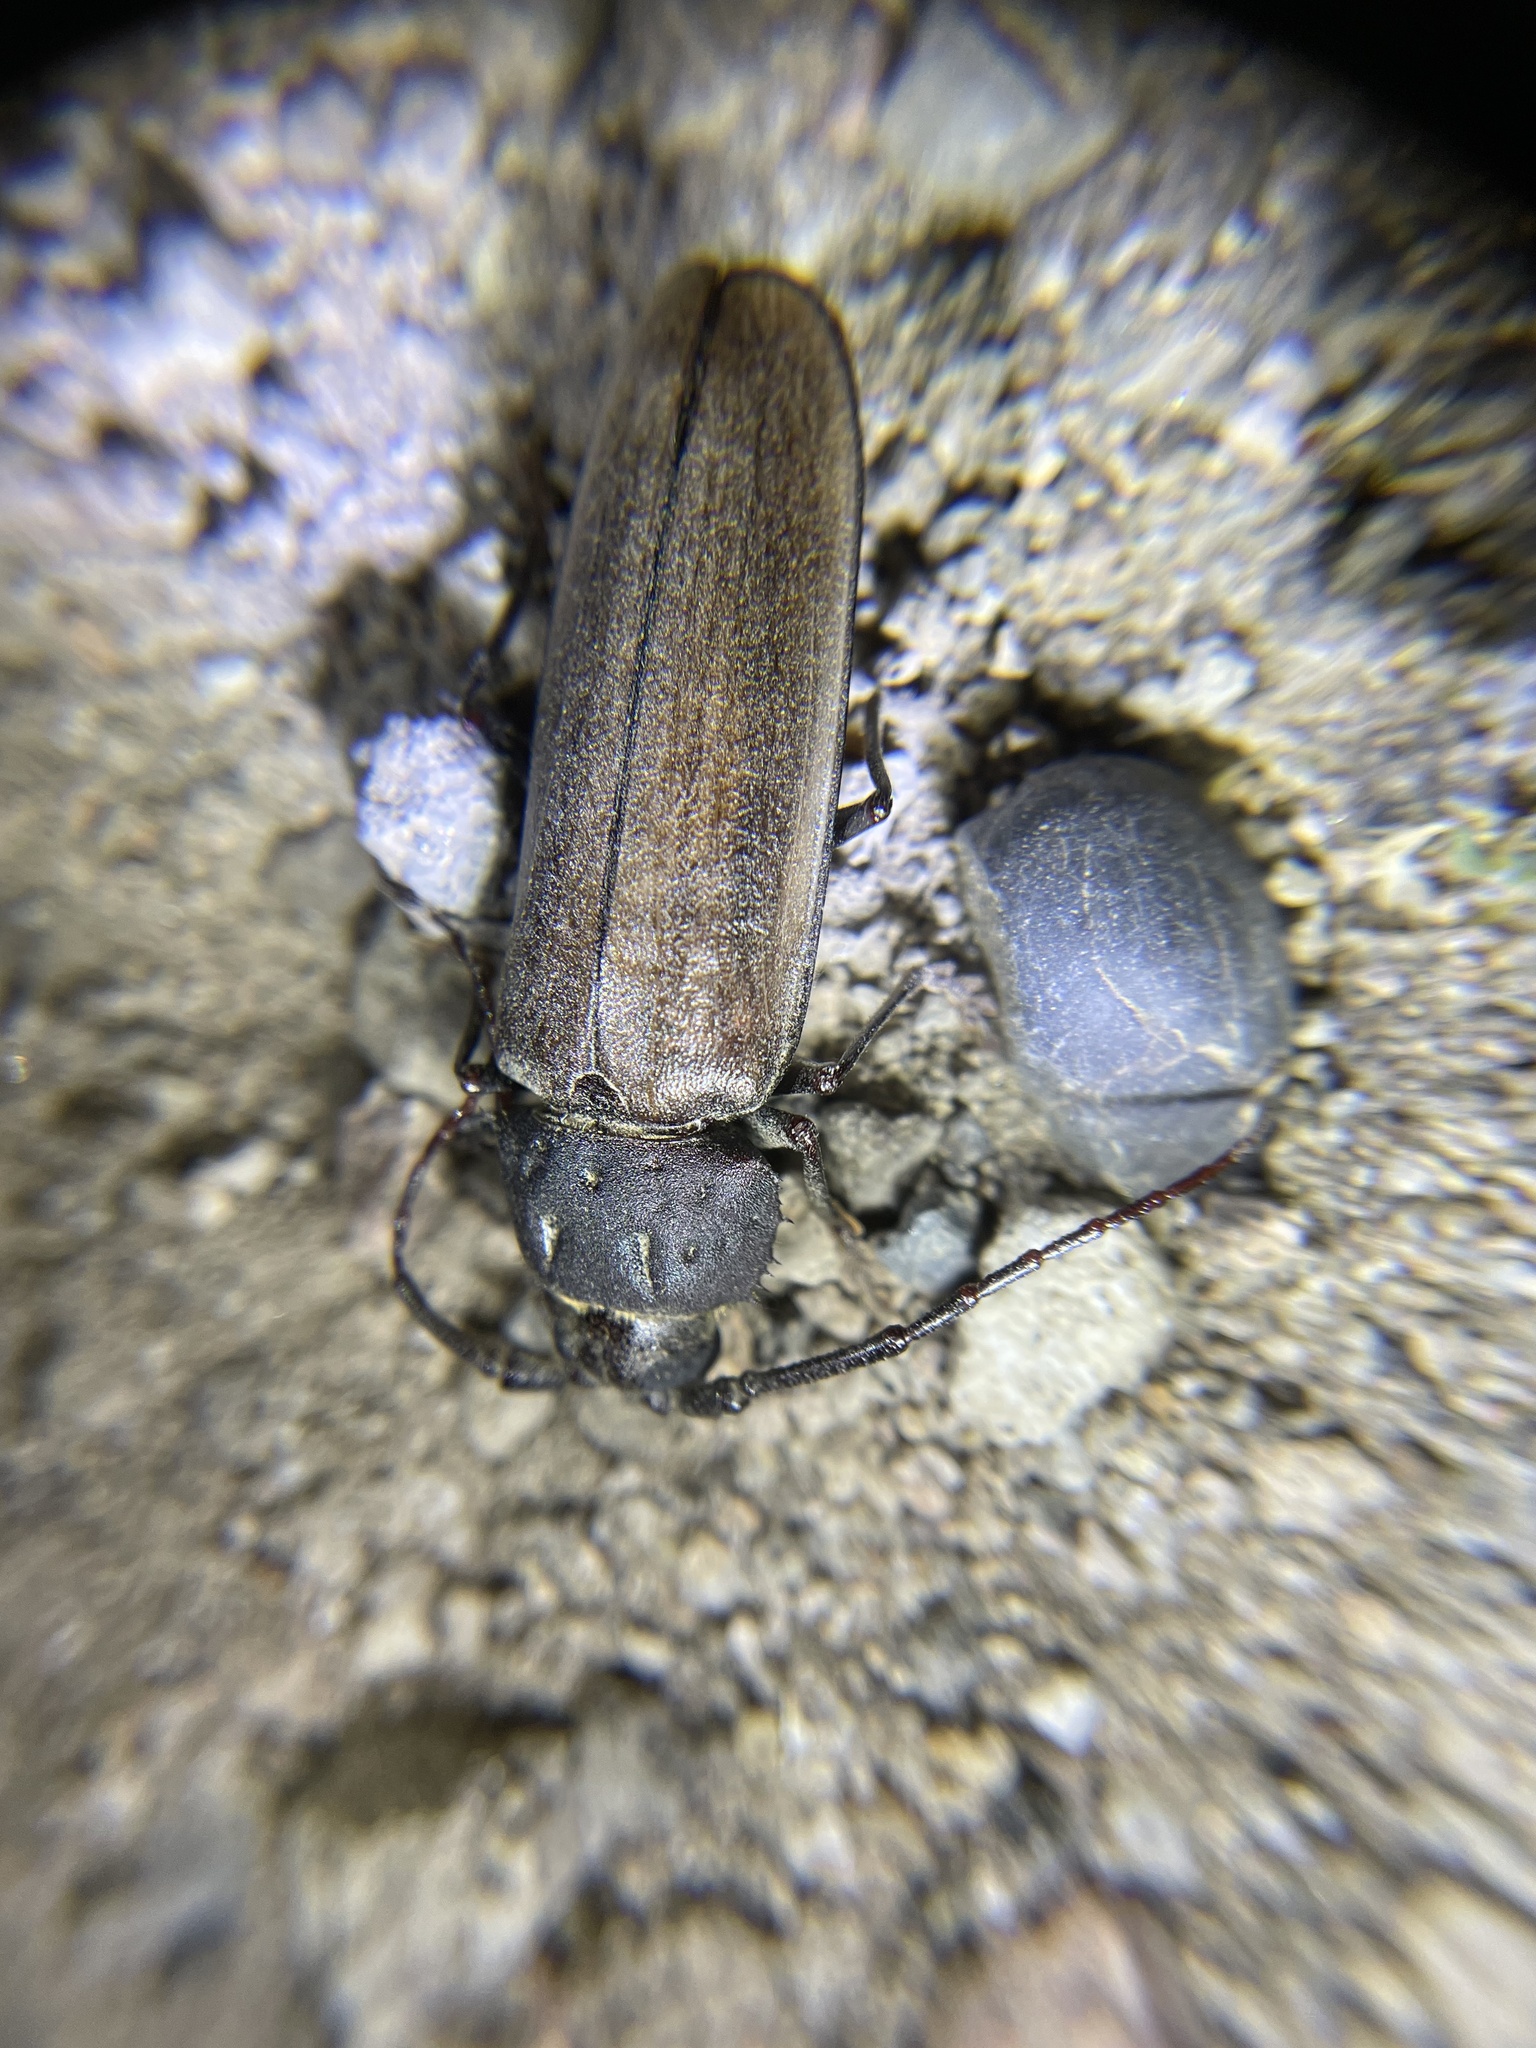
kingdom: Animalia
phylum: Arthropoda
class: Insecta
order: Coleoptera
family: Cerambycidae
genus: Trichocnemis
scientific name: Trichocnemis pauper
